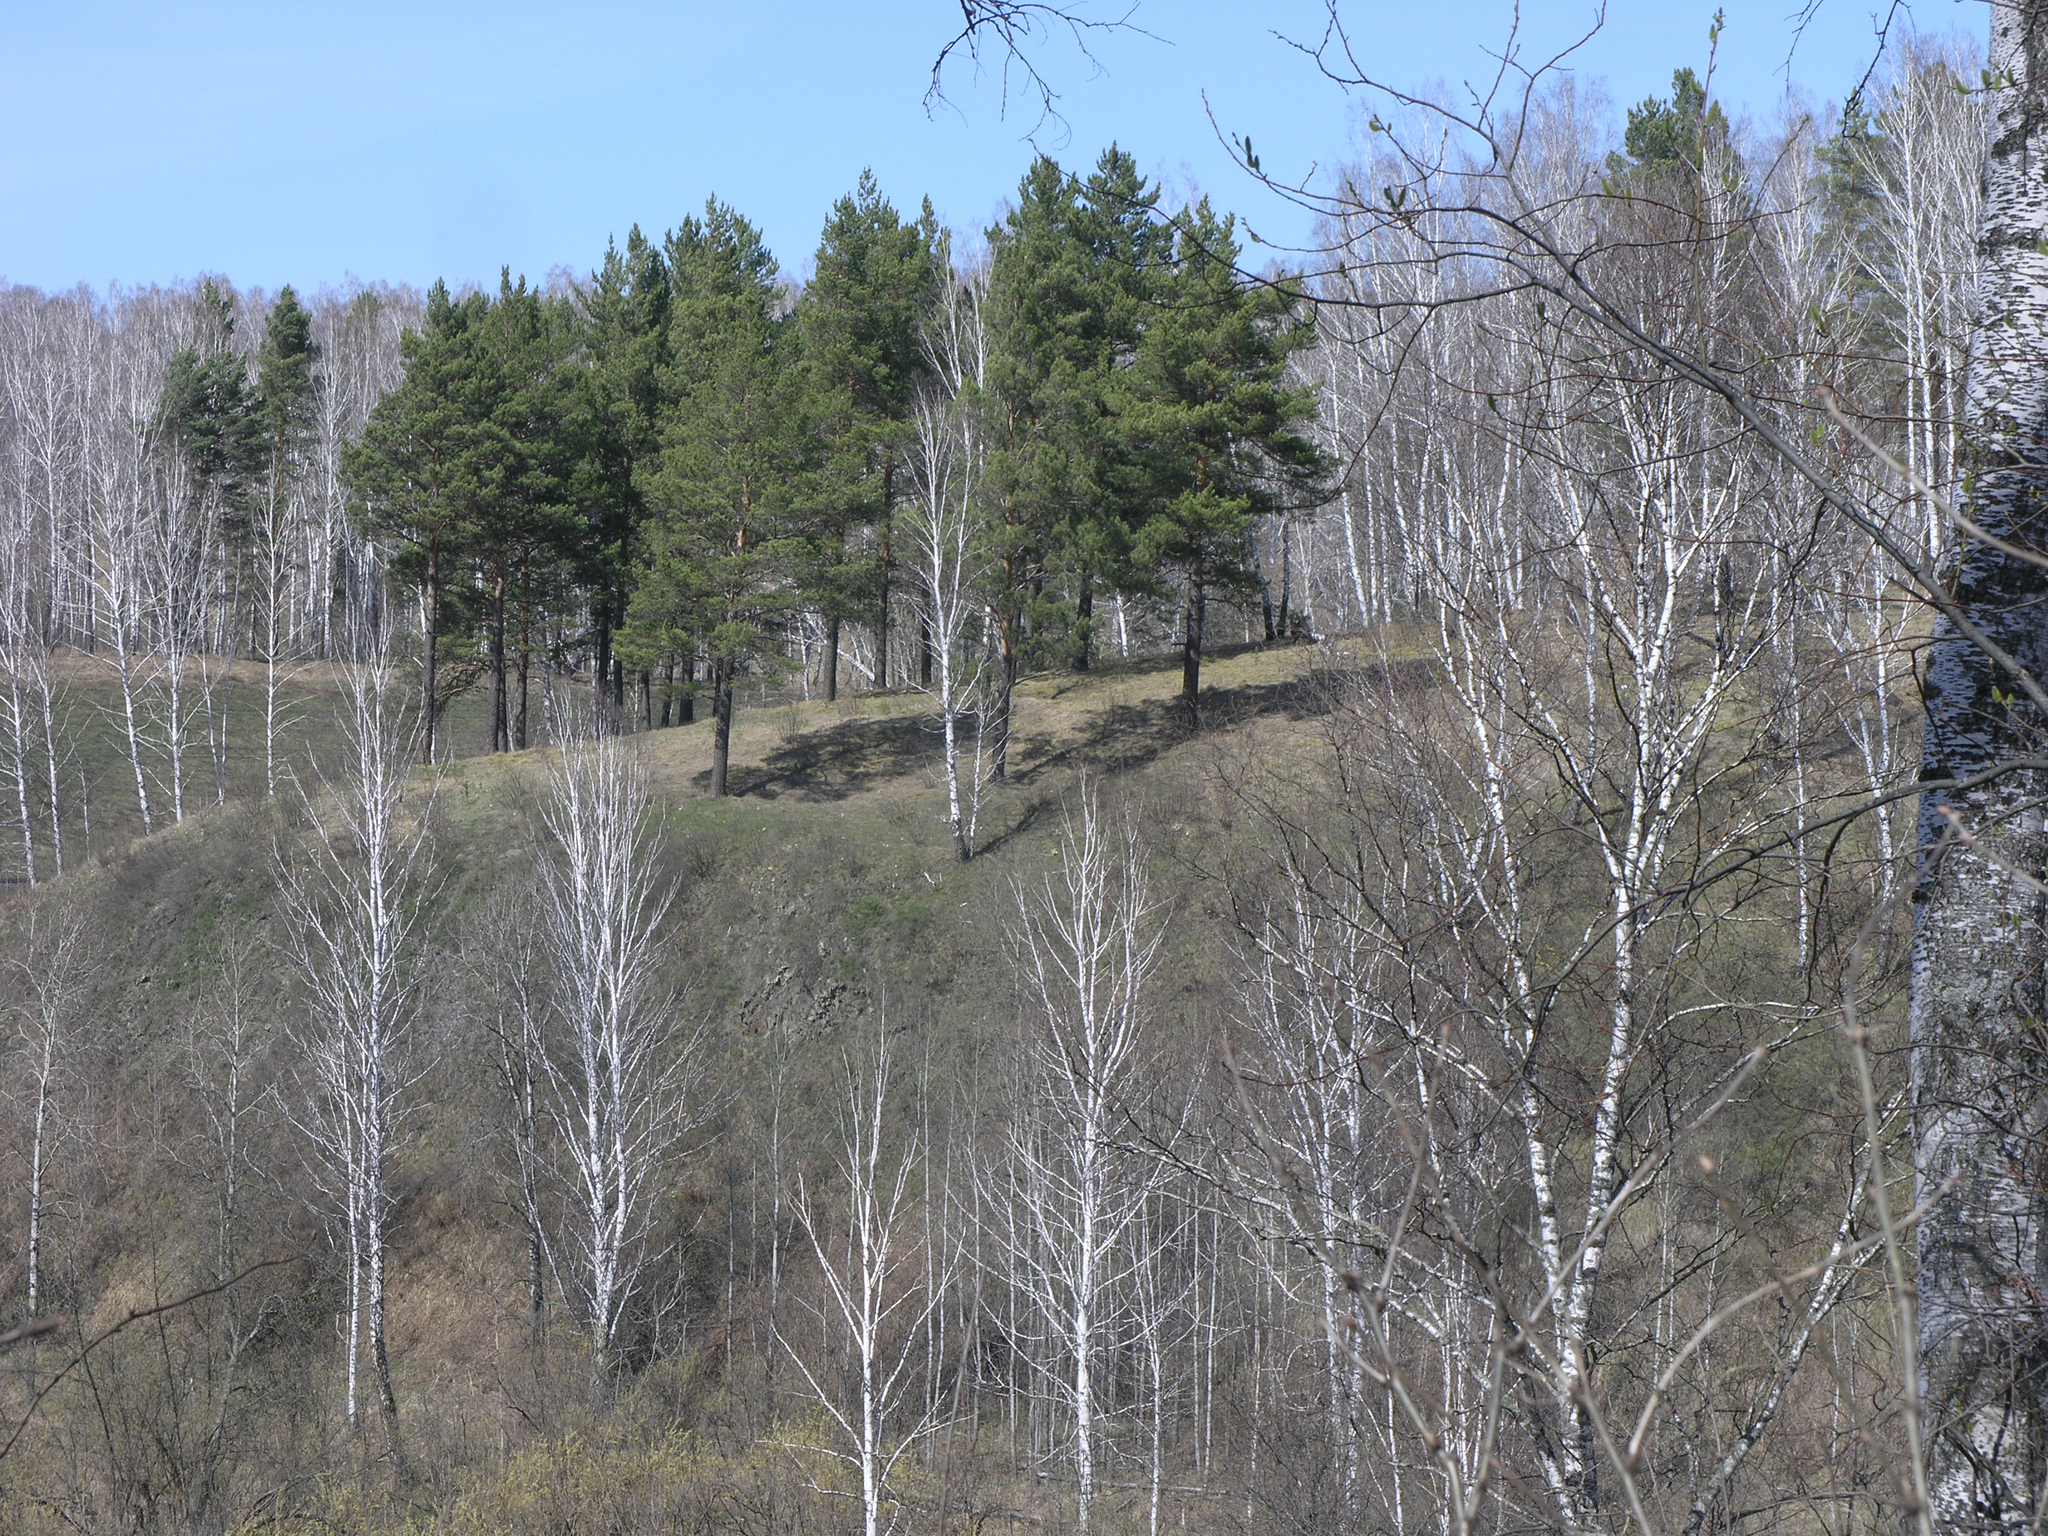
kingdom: Plantae
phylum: Tracheophyta
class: Pinopsida
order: Pinales
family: Pinaceae
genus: Pinus
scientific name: Pinus sylvestris
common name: Scots pine
